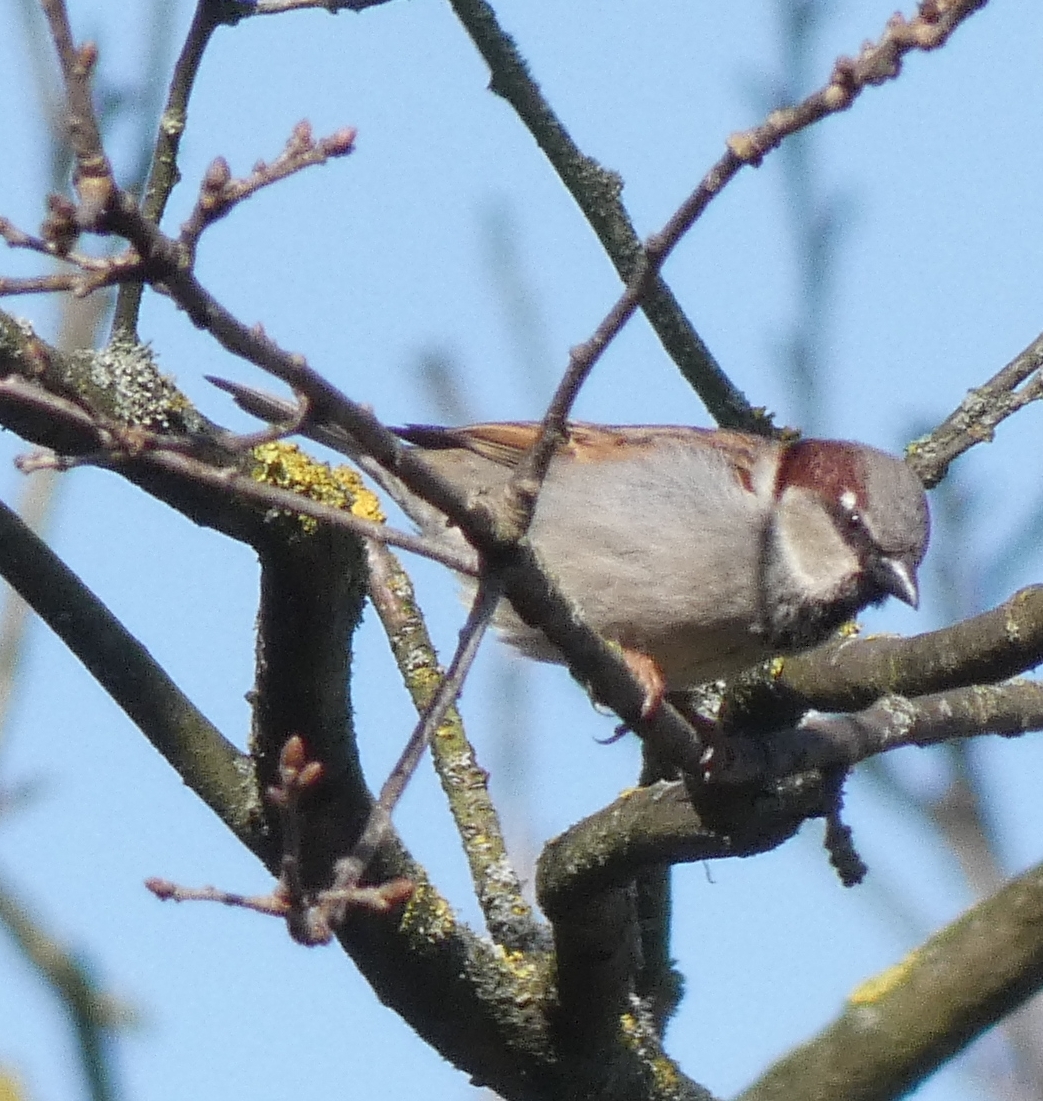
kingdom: Animalia
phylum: Chordata
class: Aves
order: Passeriformes
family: Passeridae
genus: Passer
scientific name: Passer domesticus
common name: House sparrow
